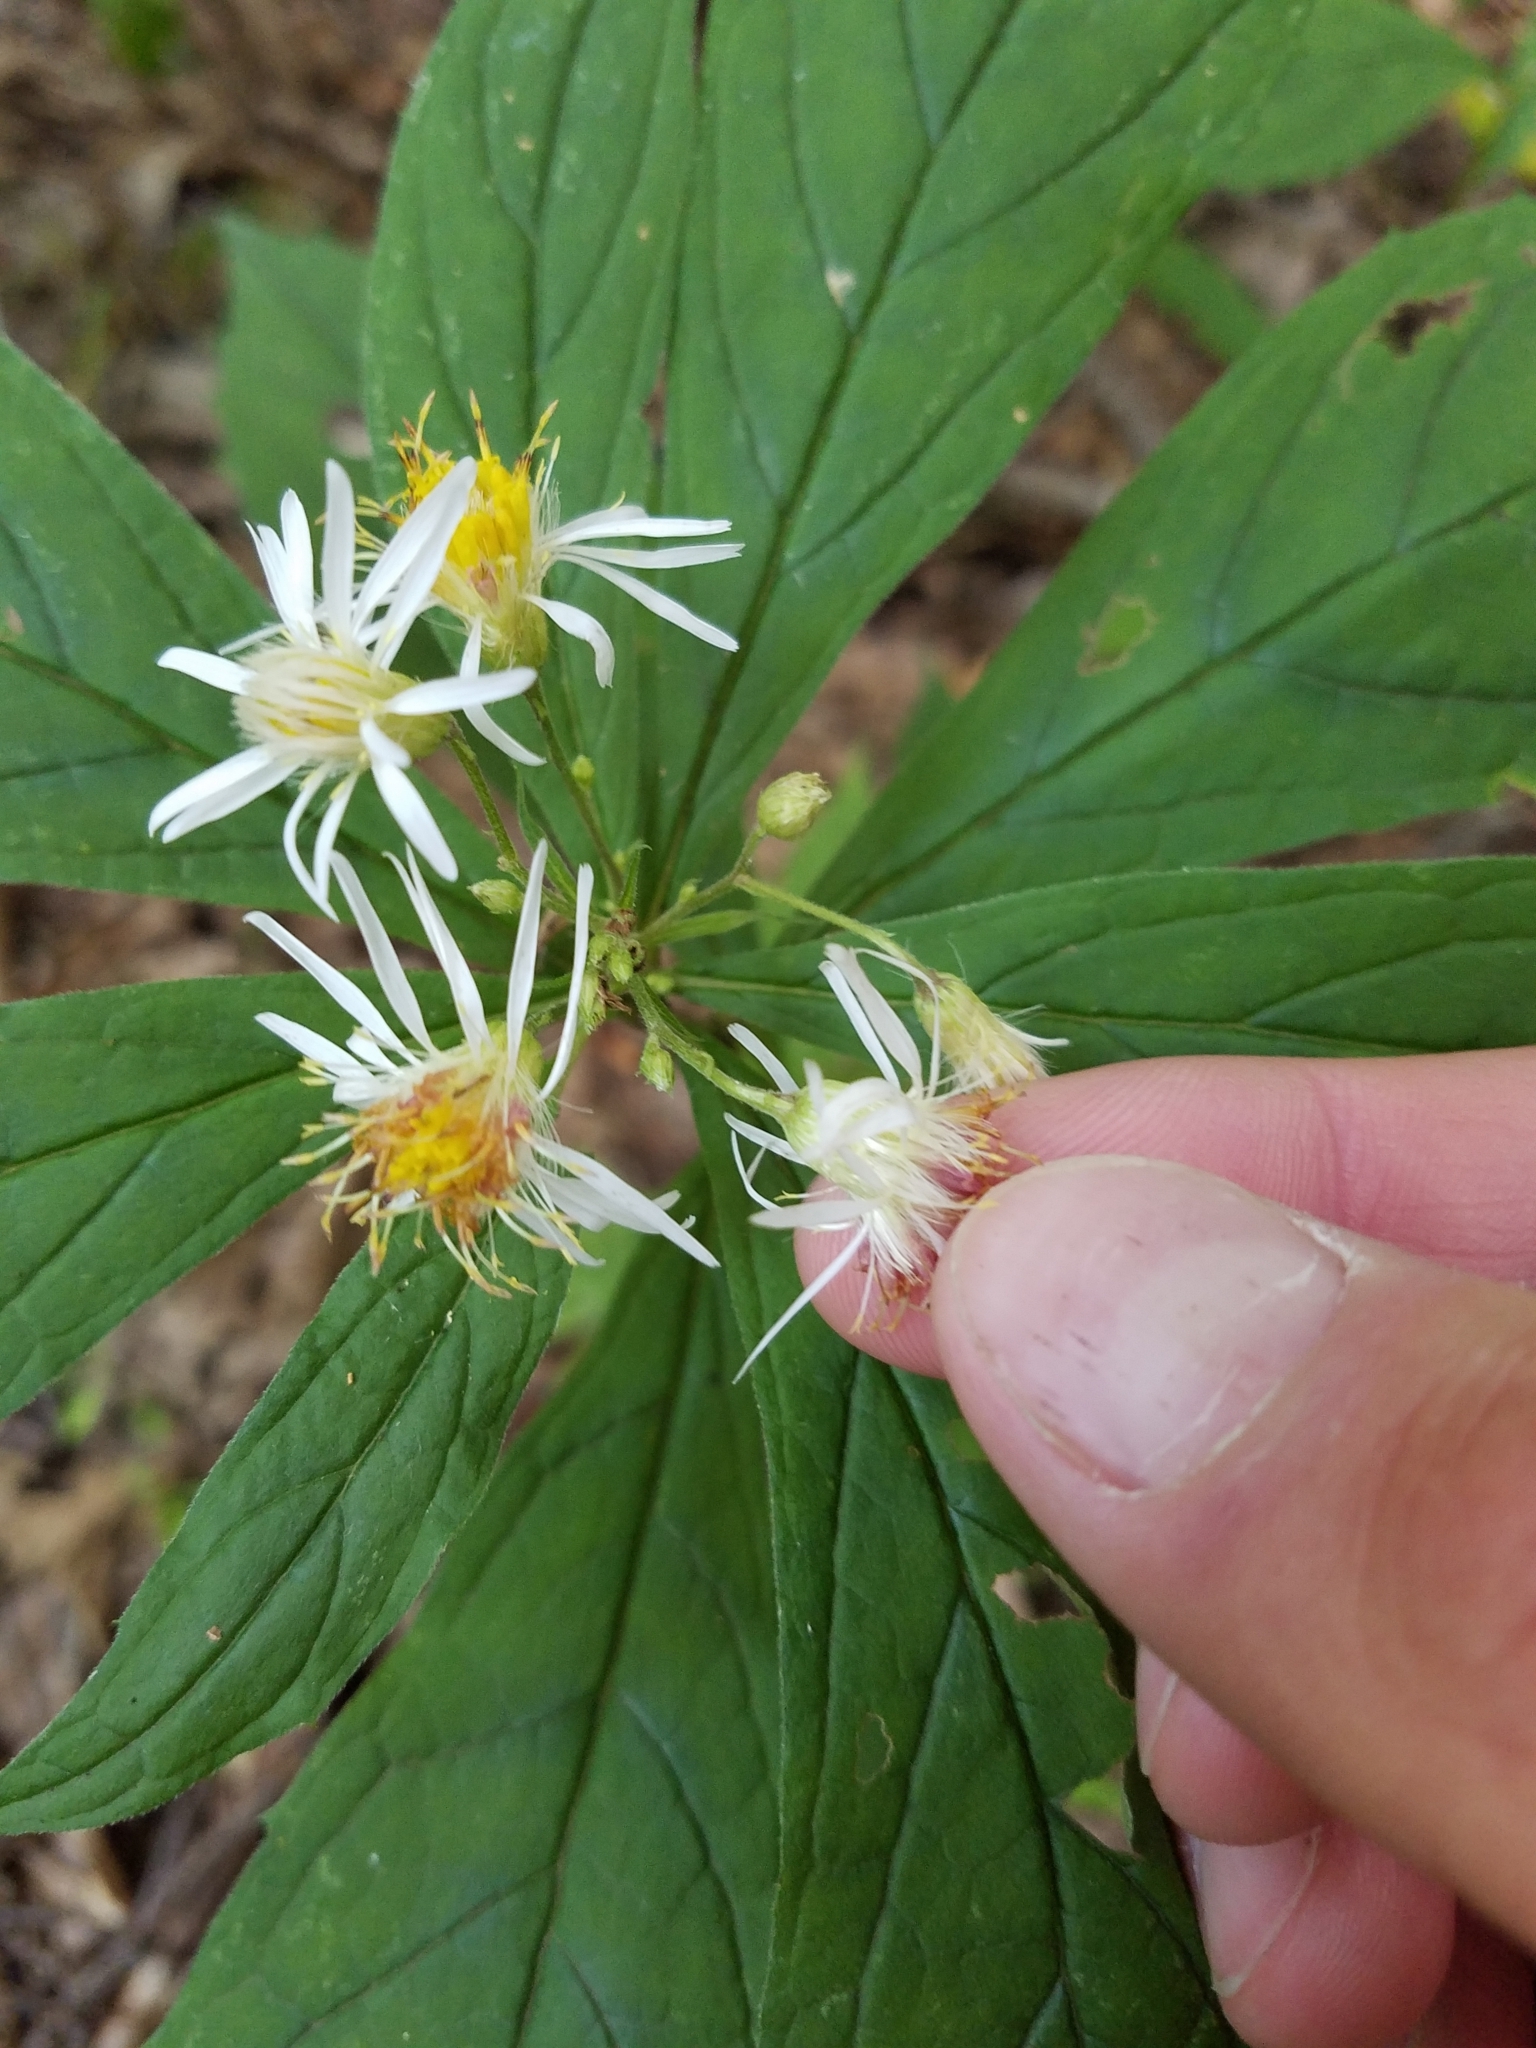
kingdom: Plantae
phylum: Tracheophyta
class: Magnoliopsida
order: Asterales
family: Asteraceae
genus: Oclemena
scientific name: Oclemena acuminata
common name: Mountain aster
